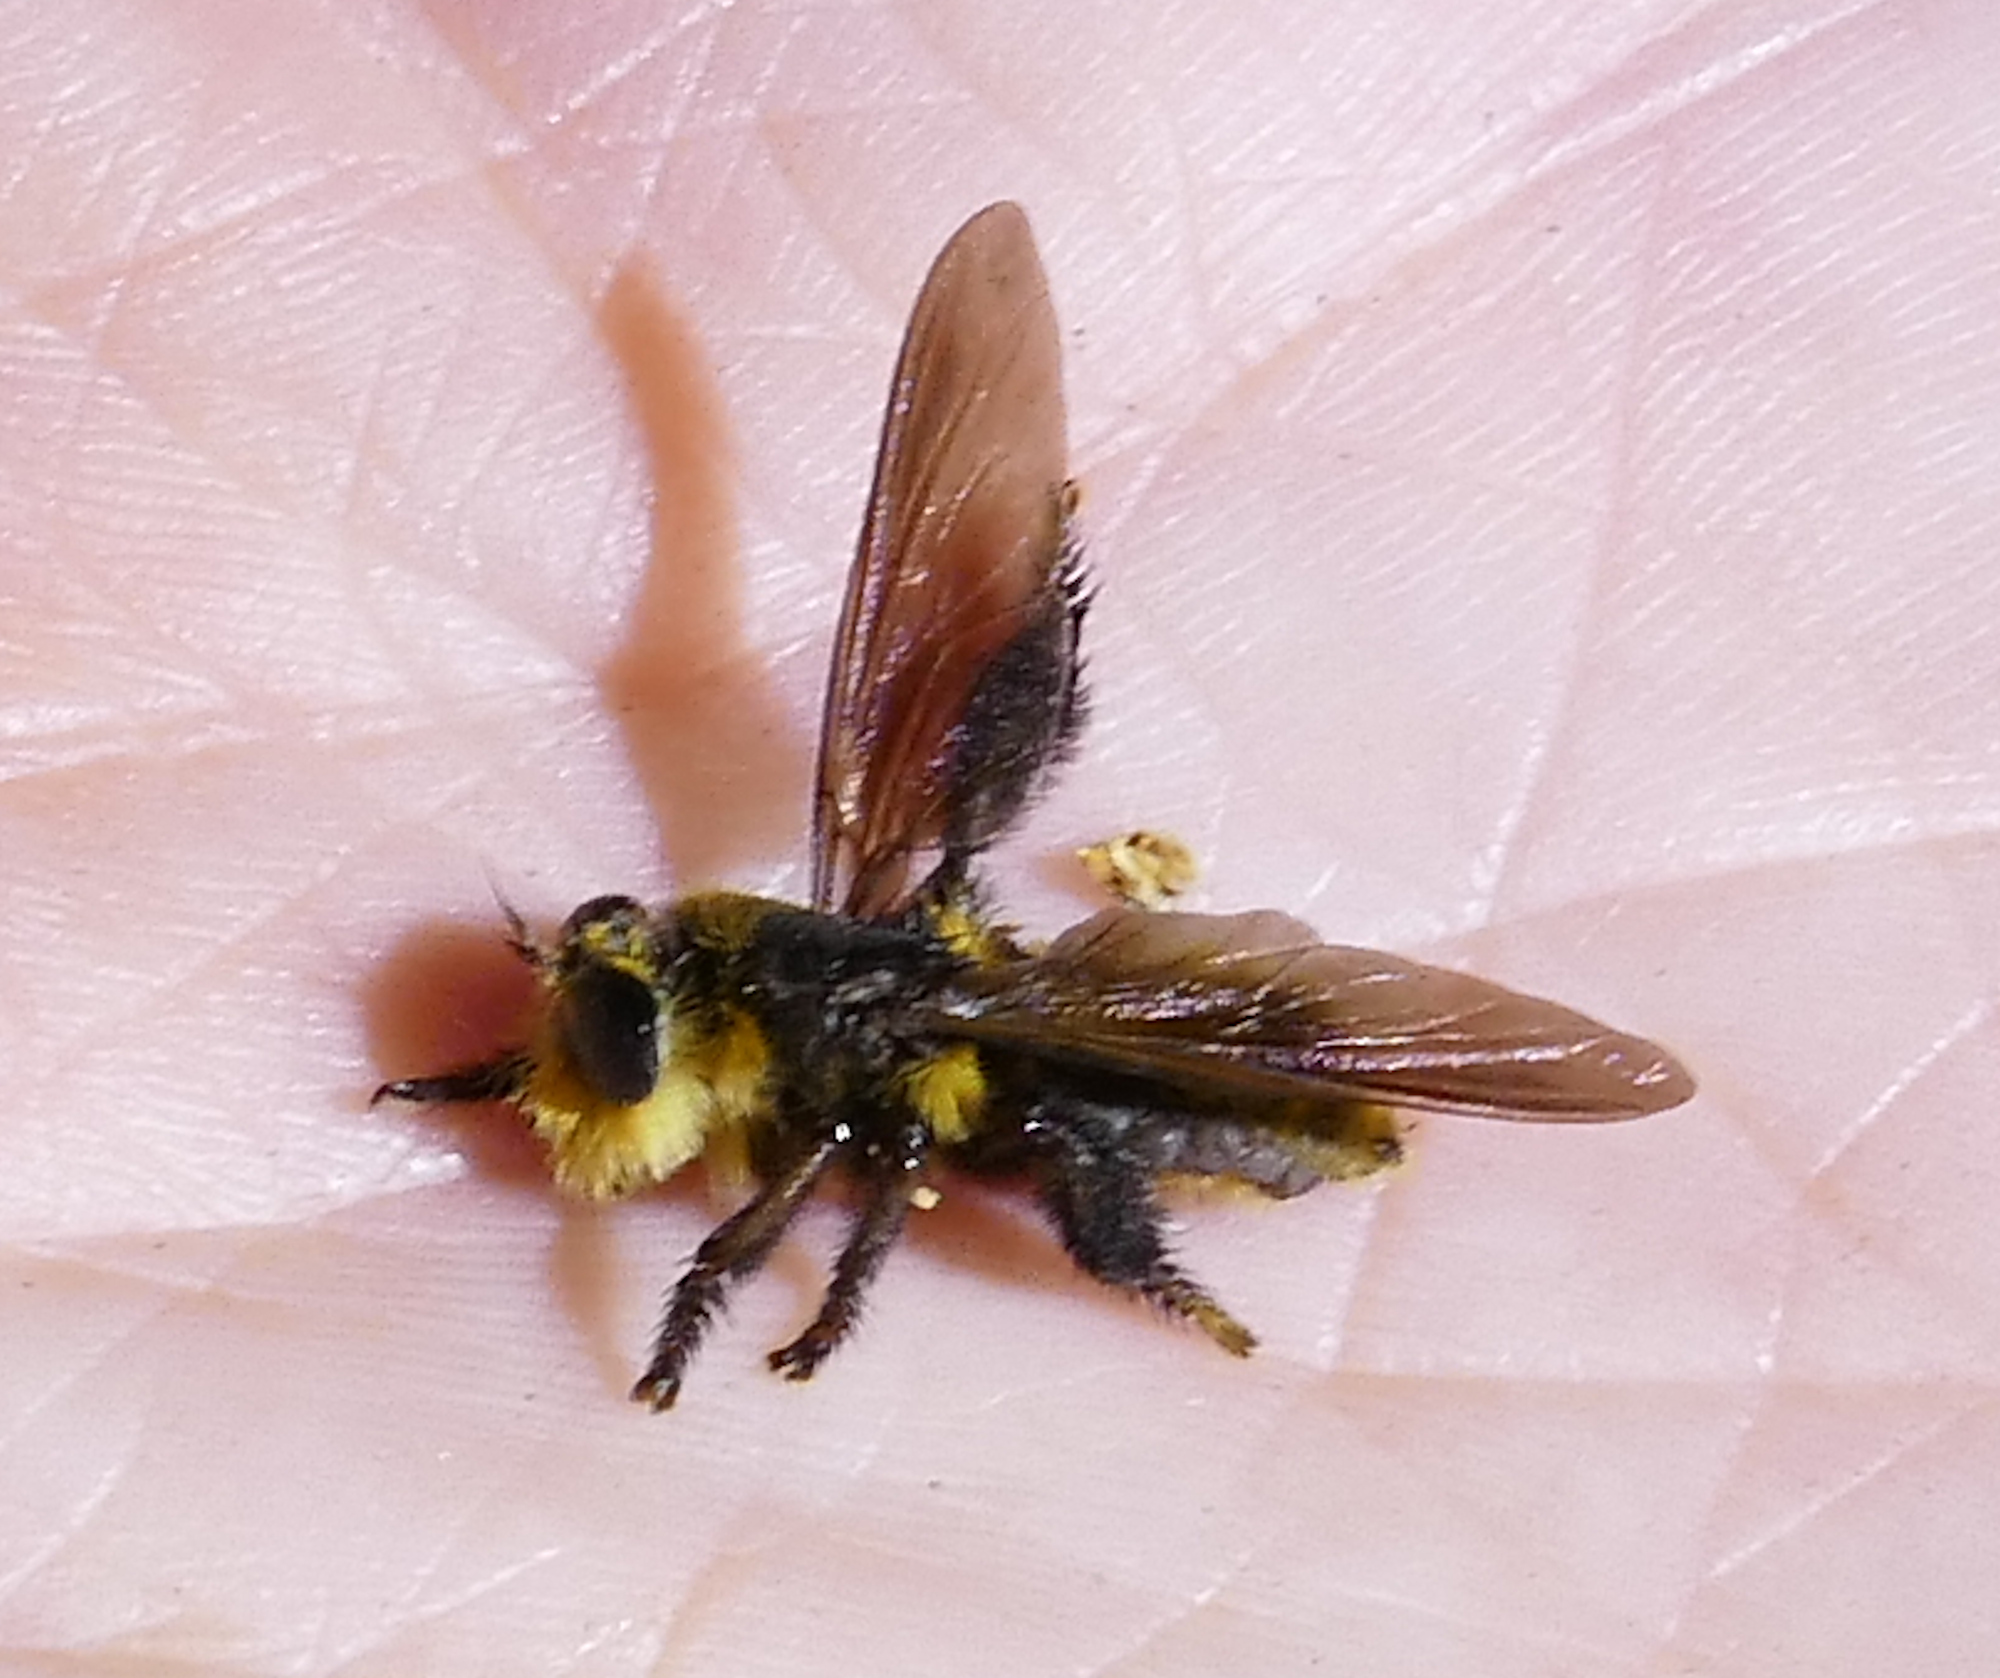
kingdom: Animalia
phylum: Arthropoda
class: Insecta
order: Diptera
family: Asilidae
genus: Mallophora
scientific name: Mallophora fautrix
